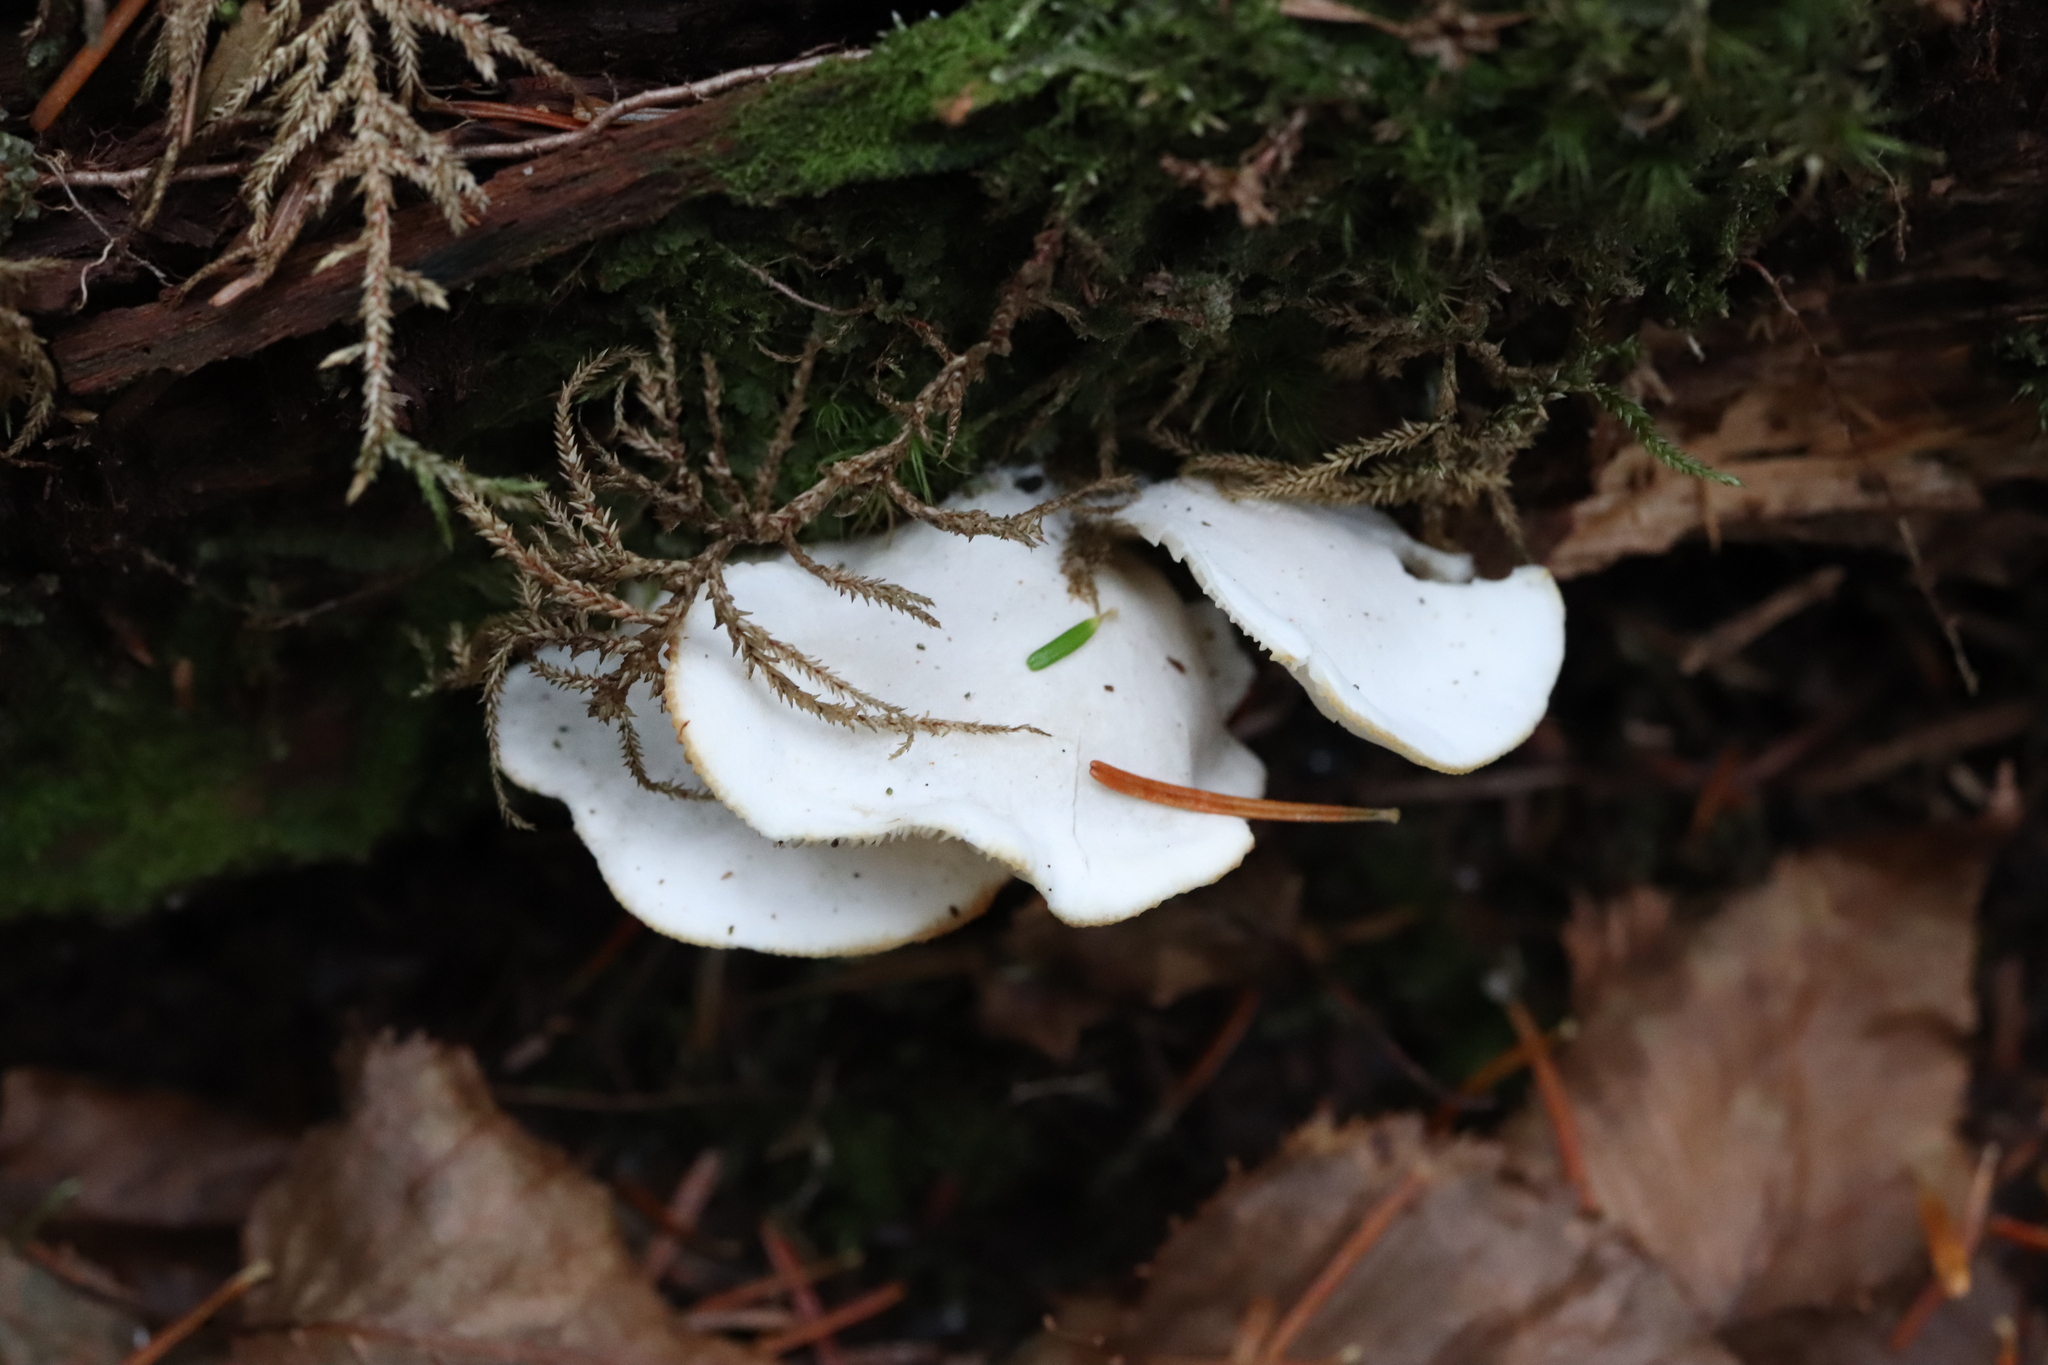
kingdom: Fungi
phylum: Basidiomycota
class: Agaricomycetes
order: Agaricales
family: Marasmiaceae
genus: Pleurocybella
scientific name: Pleurocybella porrigens
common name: Angel's wings
